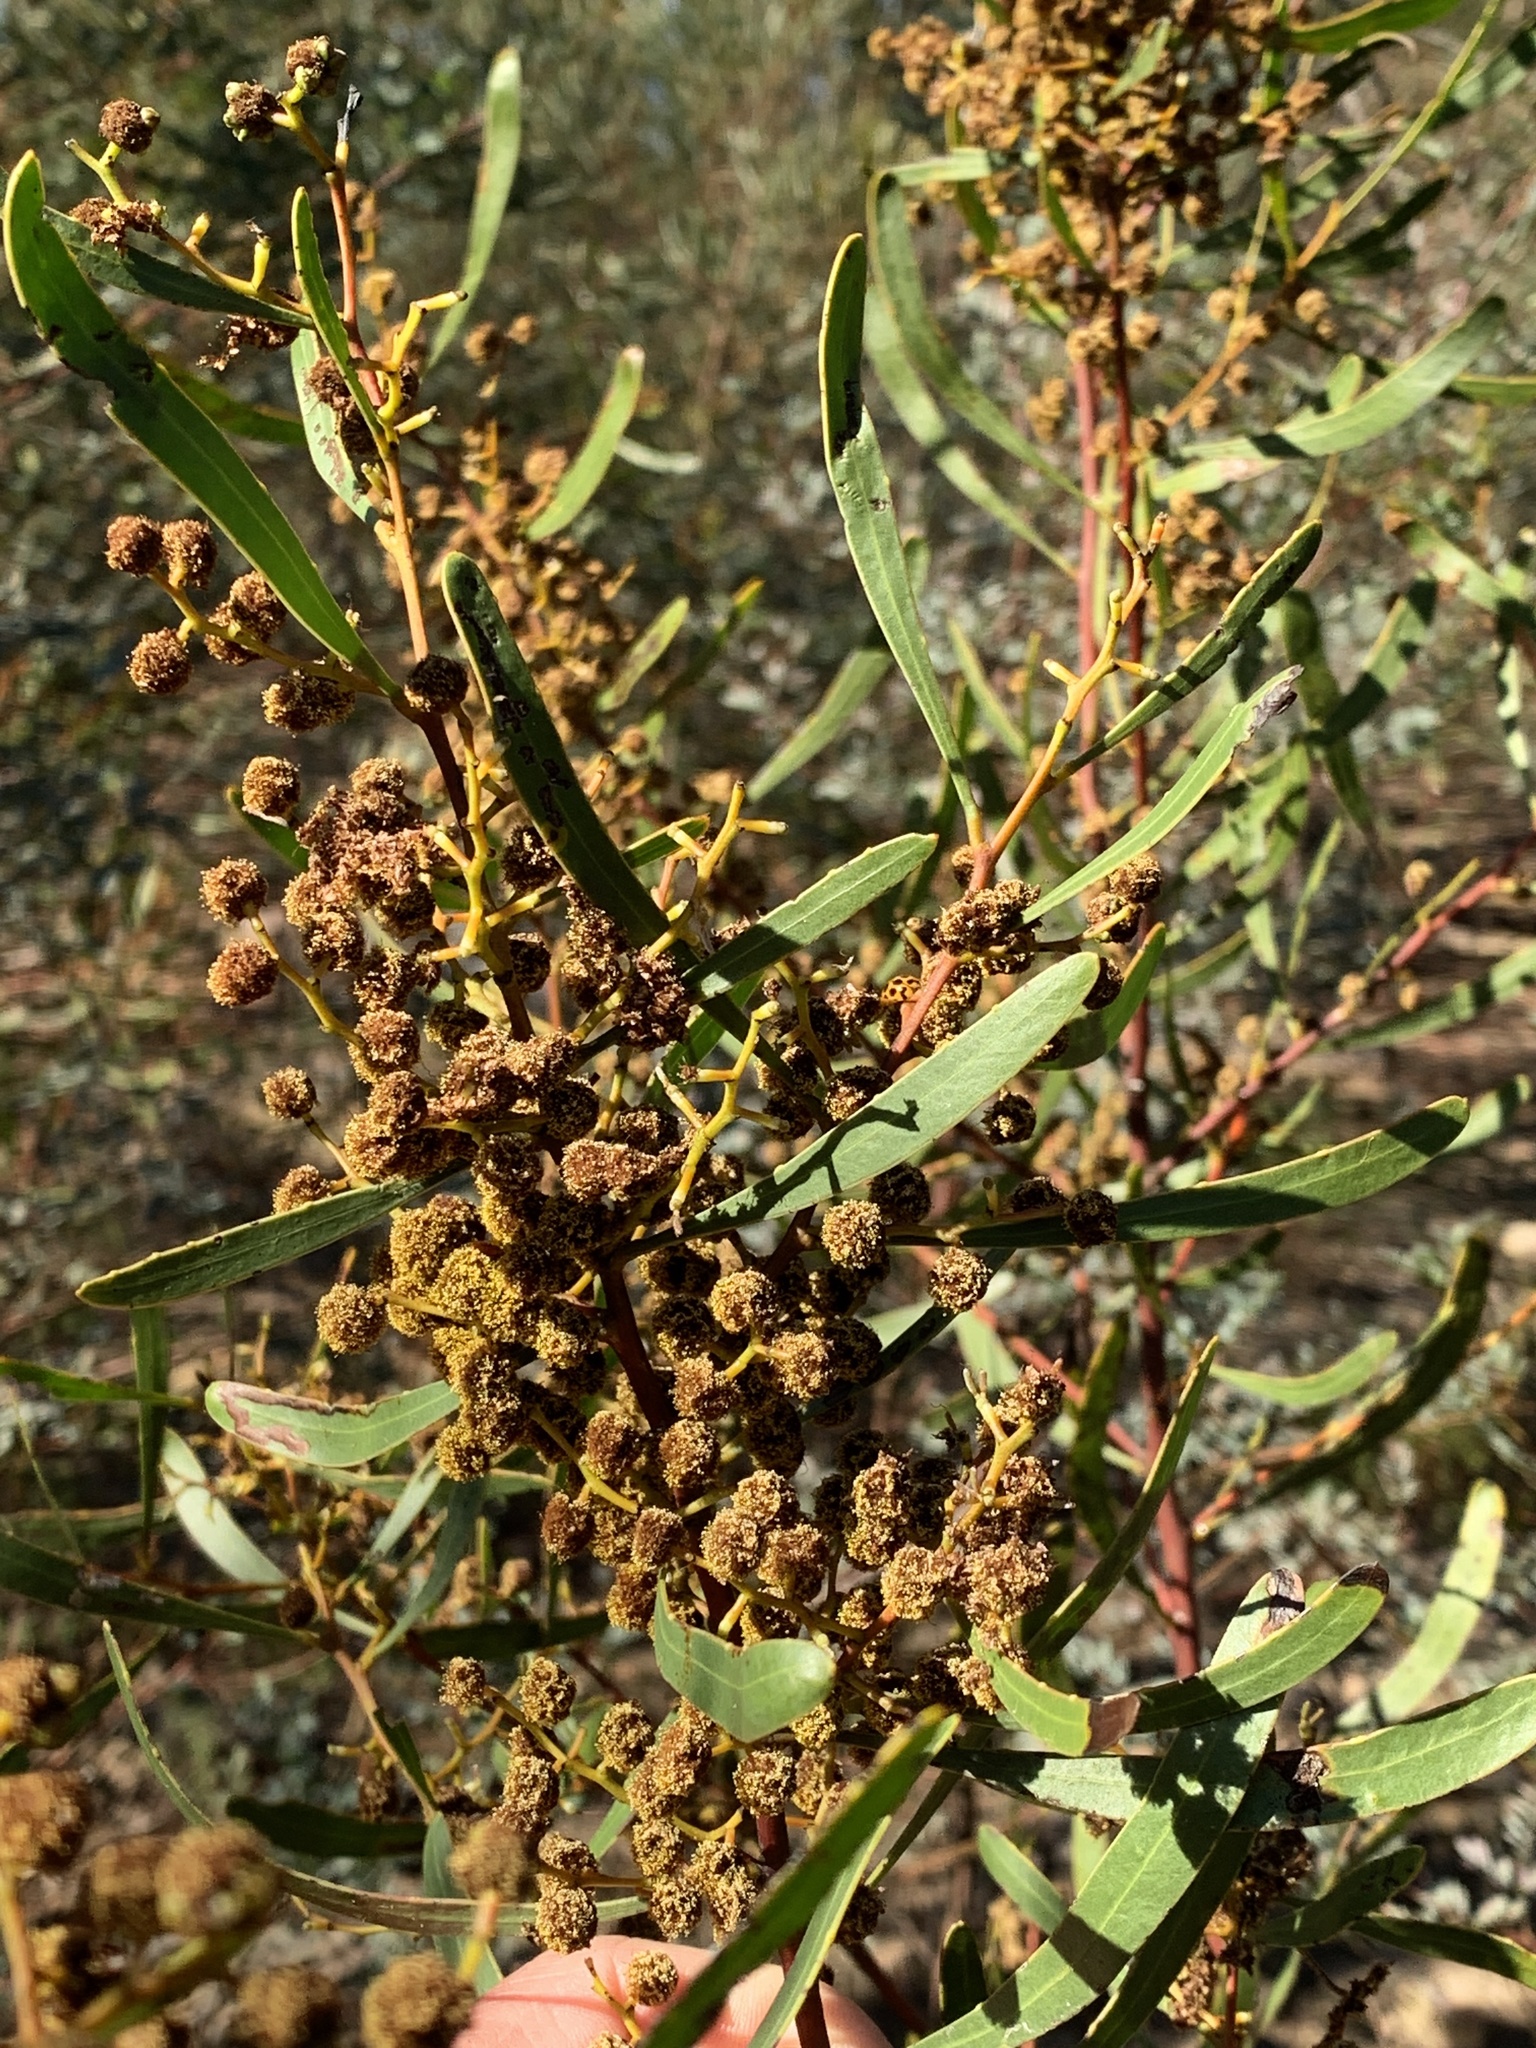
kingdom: Plantae
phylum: Tracheophyta
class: Magnoliopsida
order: Fabales
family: Fabaceae
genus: Acacia
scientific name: Acacia gladiiformis
